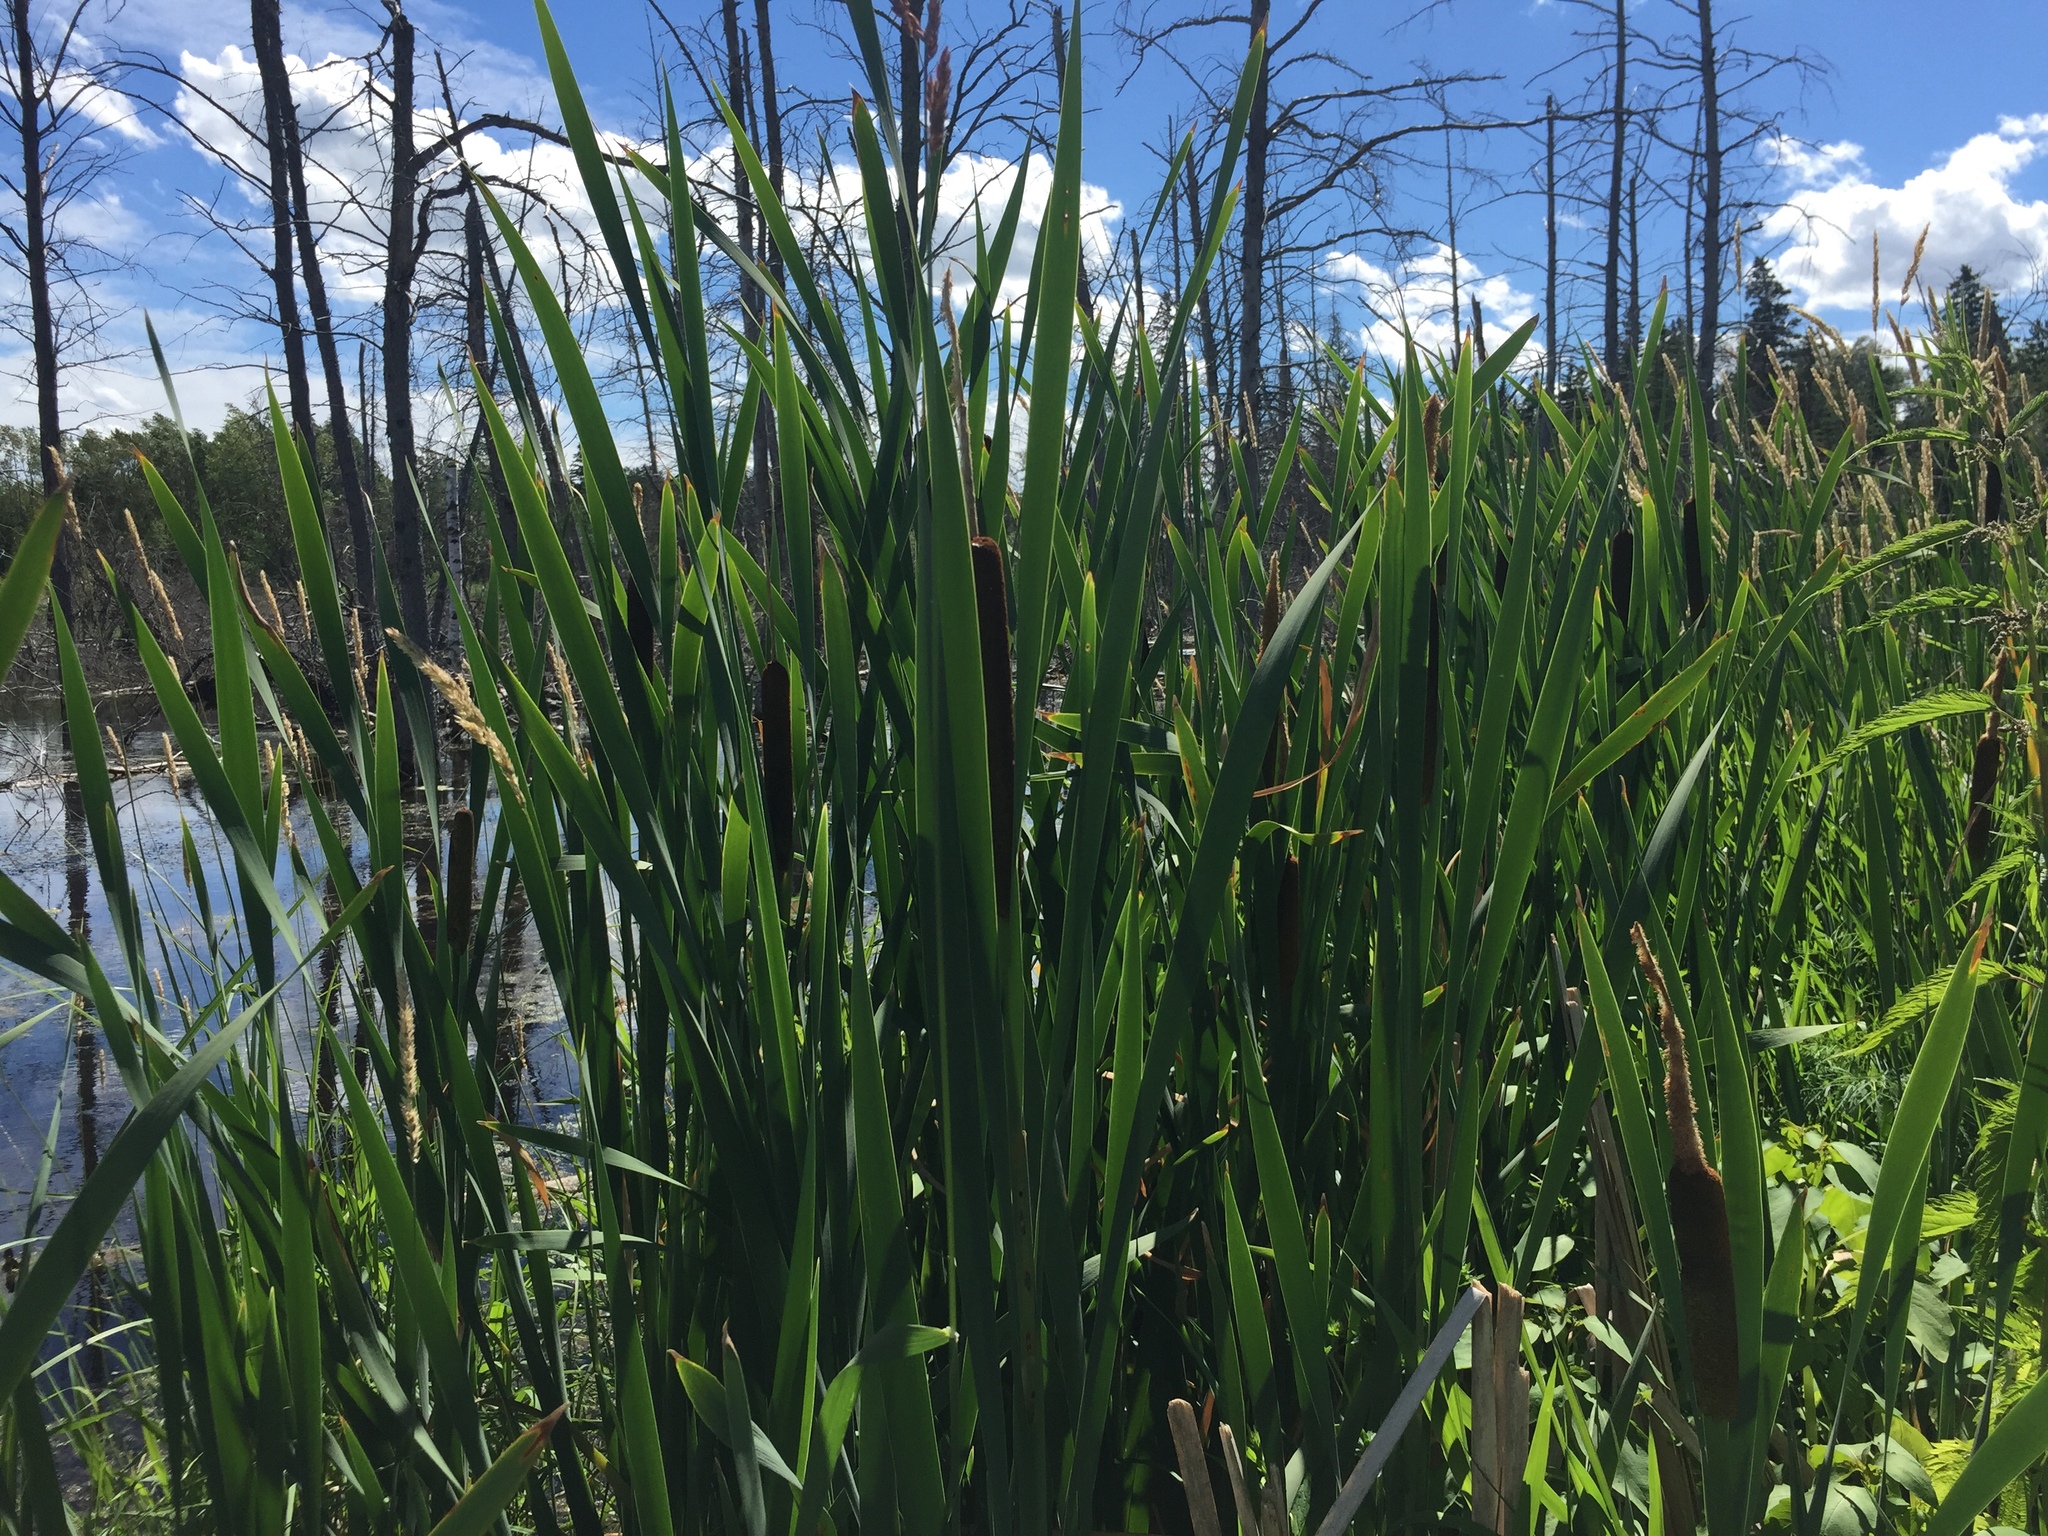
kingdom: Plantae
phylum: Tracheophyta
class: Liliopsida
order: Poales
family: Typhaceae
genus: Typha
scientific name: Typha latifolia
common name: Broadleaf cattail
